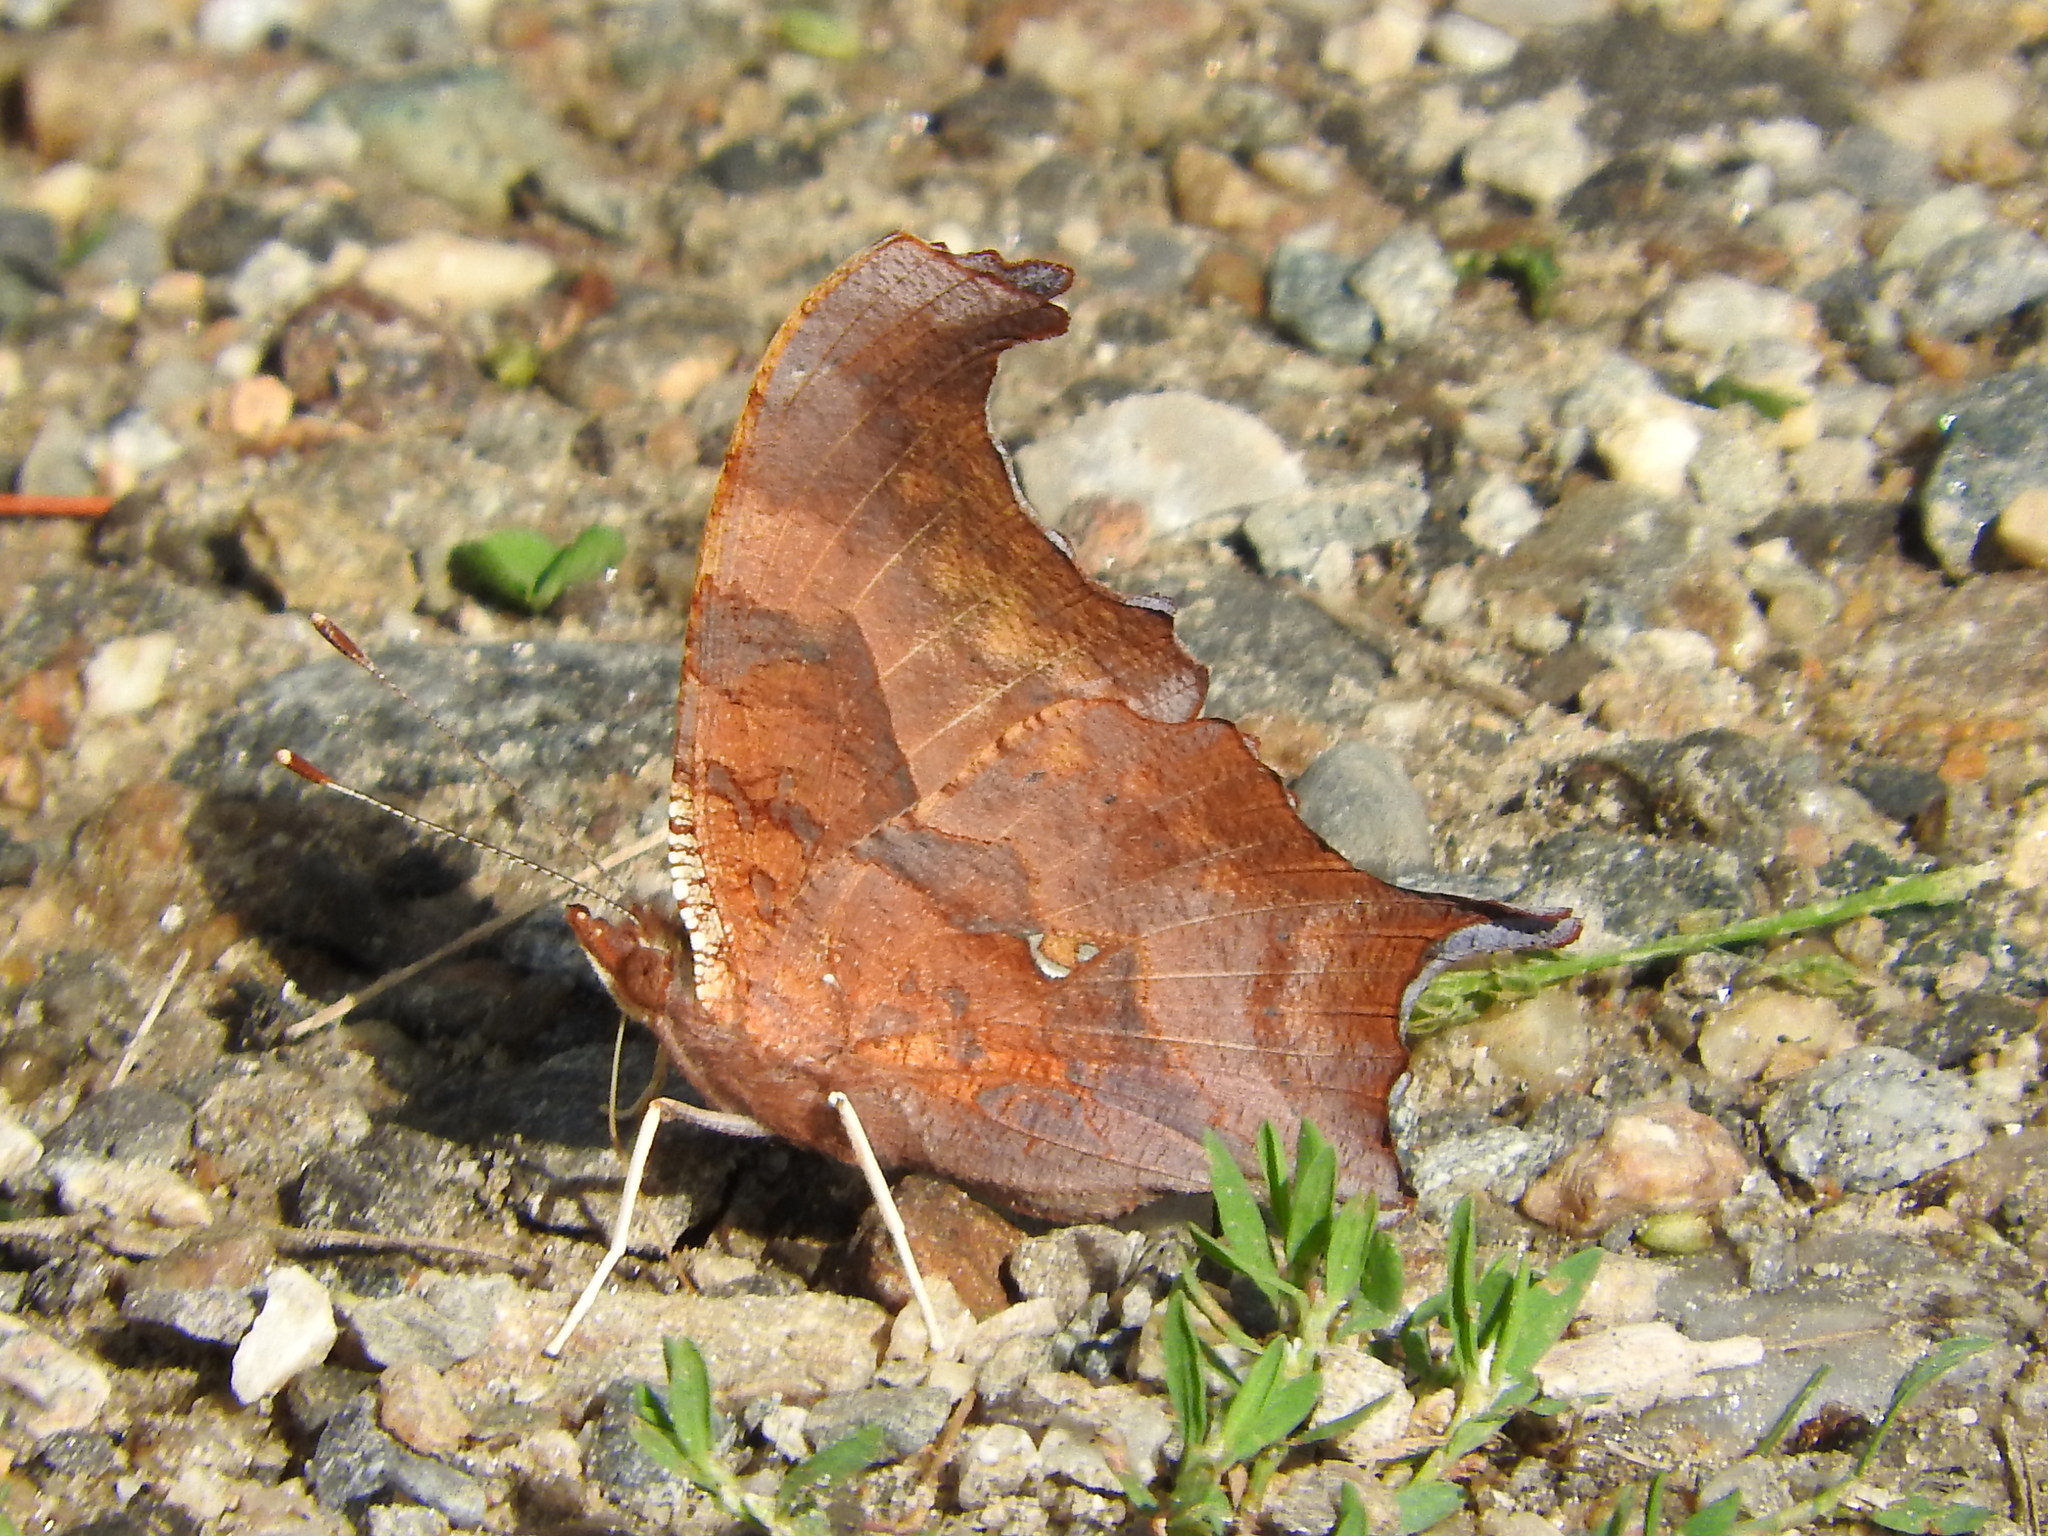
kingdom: Animalia
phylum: Arthropoda
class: Insecta
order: Lepidoptera
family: Nymphalidae
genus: Polygonia
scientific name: Polygonia interrogationis
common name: Question mark
